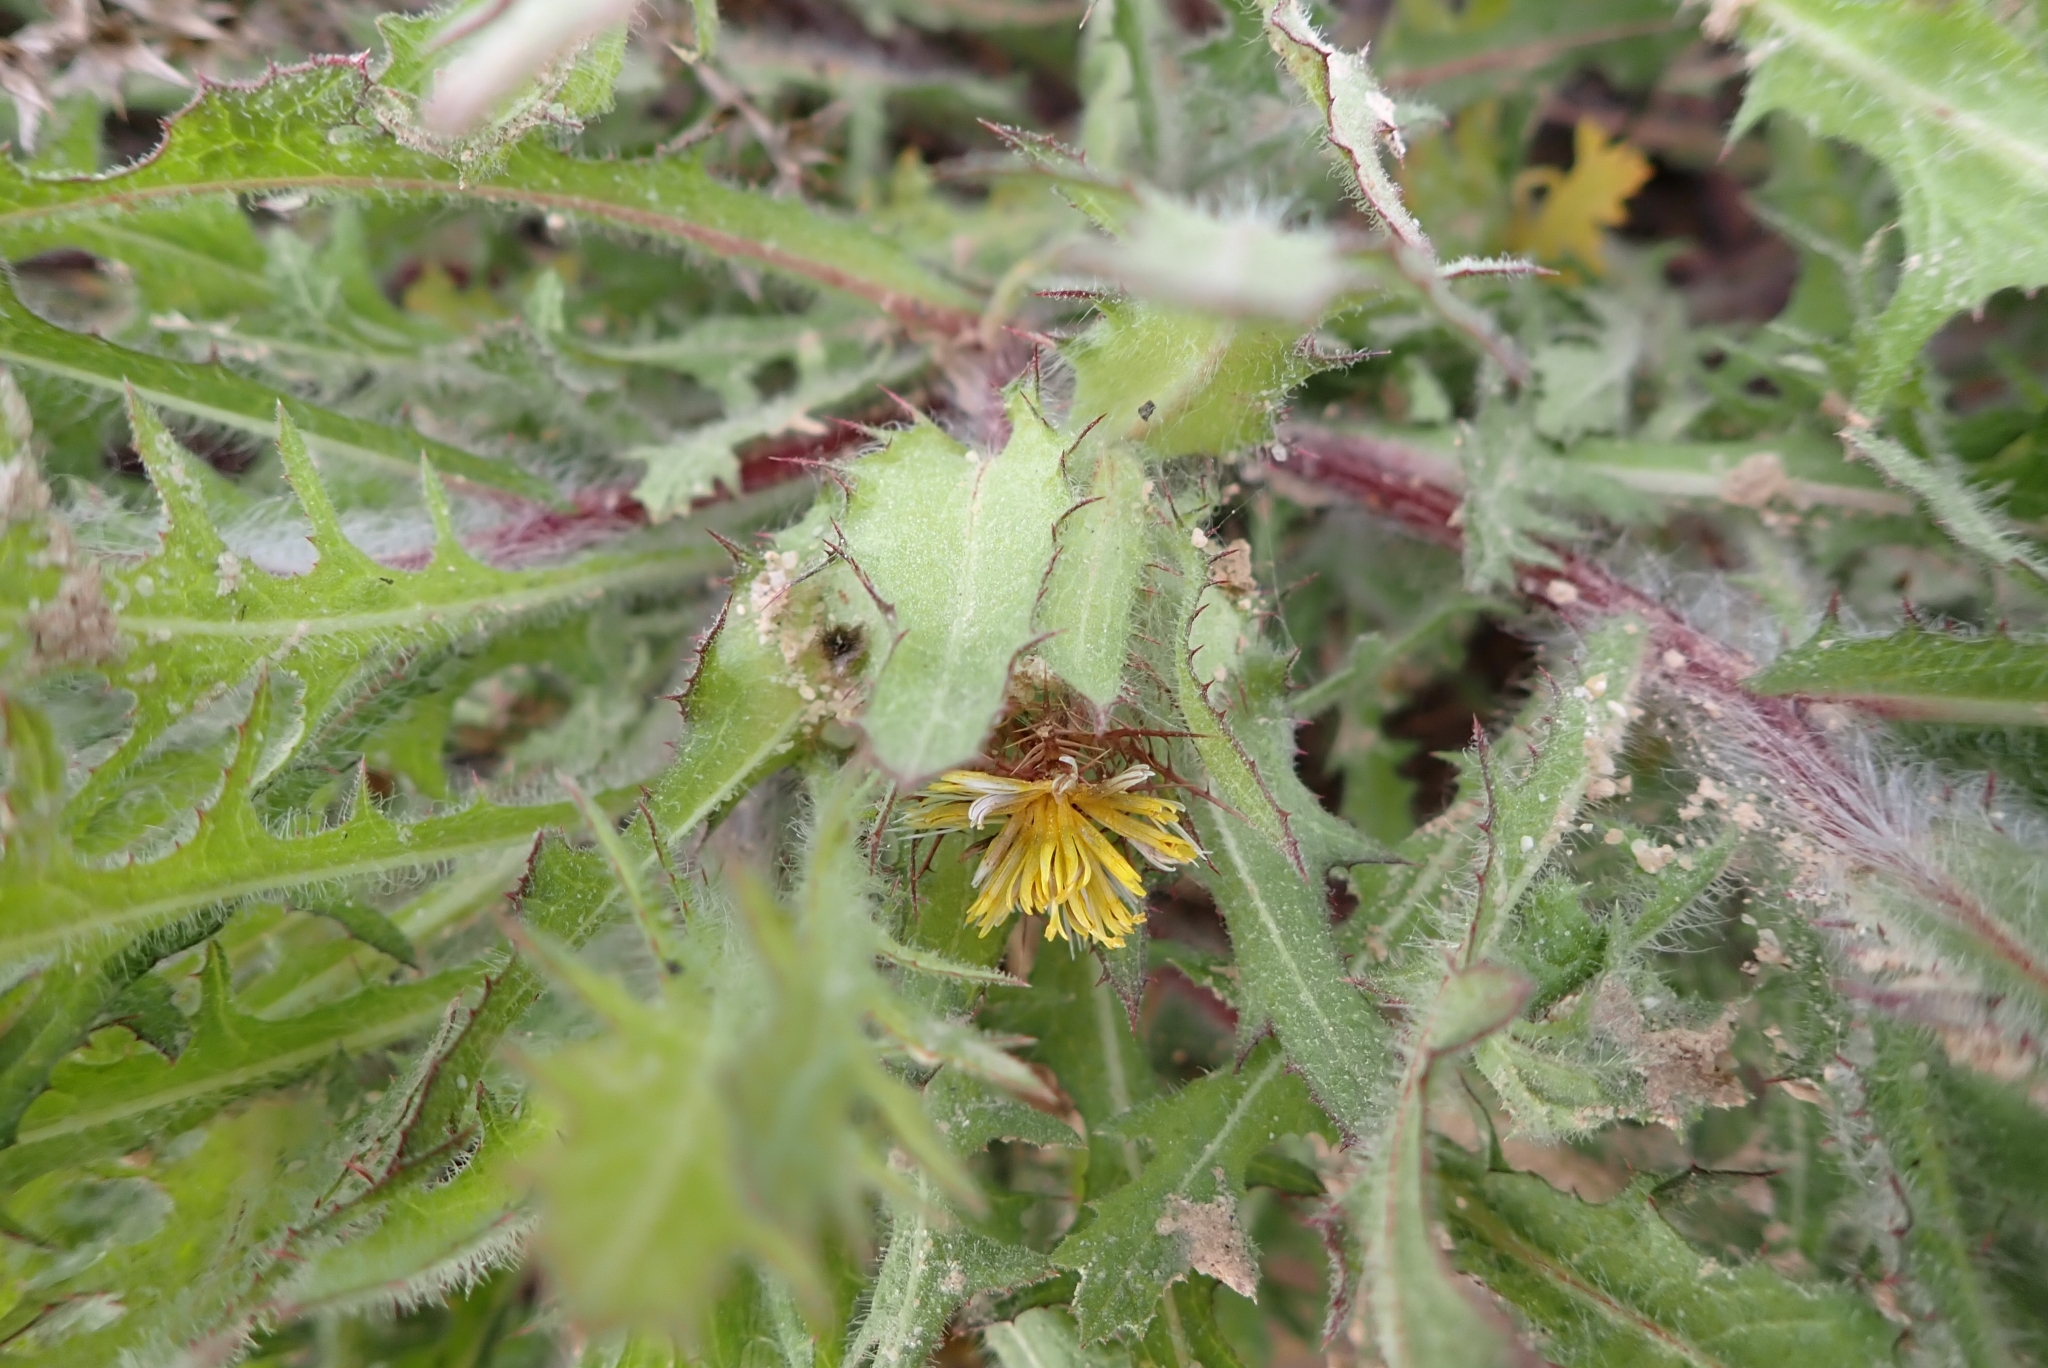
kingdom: Plantae
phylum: Tracheophyta
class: Magnoliopsida
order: Asterales
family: Asteraceae
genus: Centaurea
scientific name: Centaurea benedicta
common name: Blessed thistle
